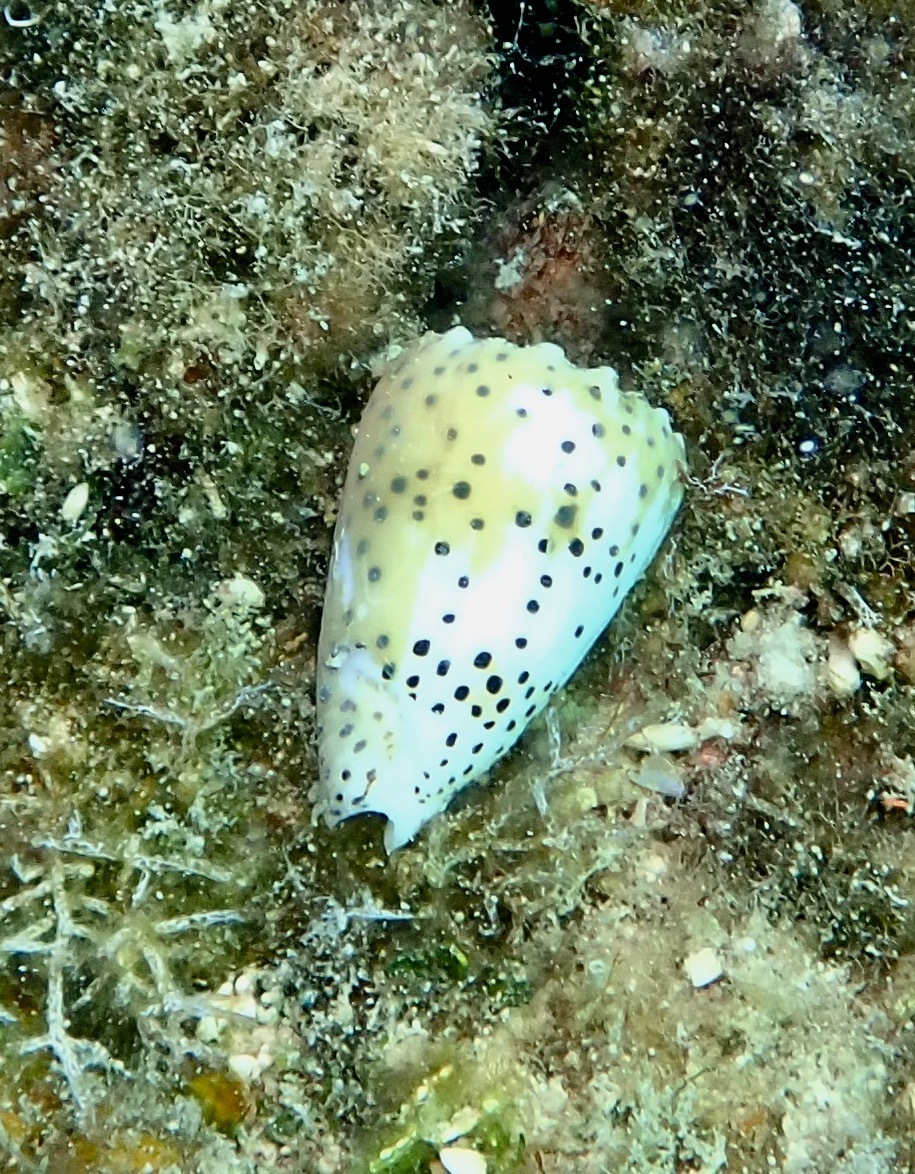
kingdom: Animalia
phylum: Mollusca
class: Gastropoda
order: Neogastropoda
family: Conidae
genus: Conus
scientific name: Conus pulicarius
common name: Flea-bite cone
